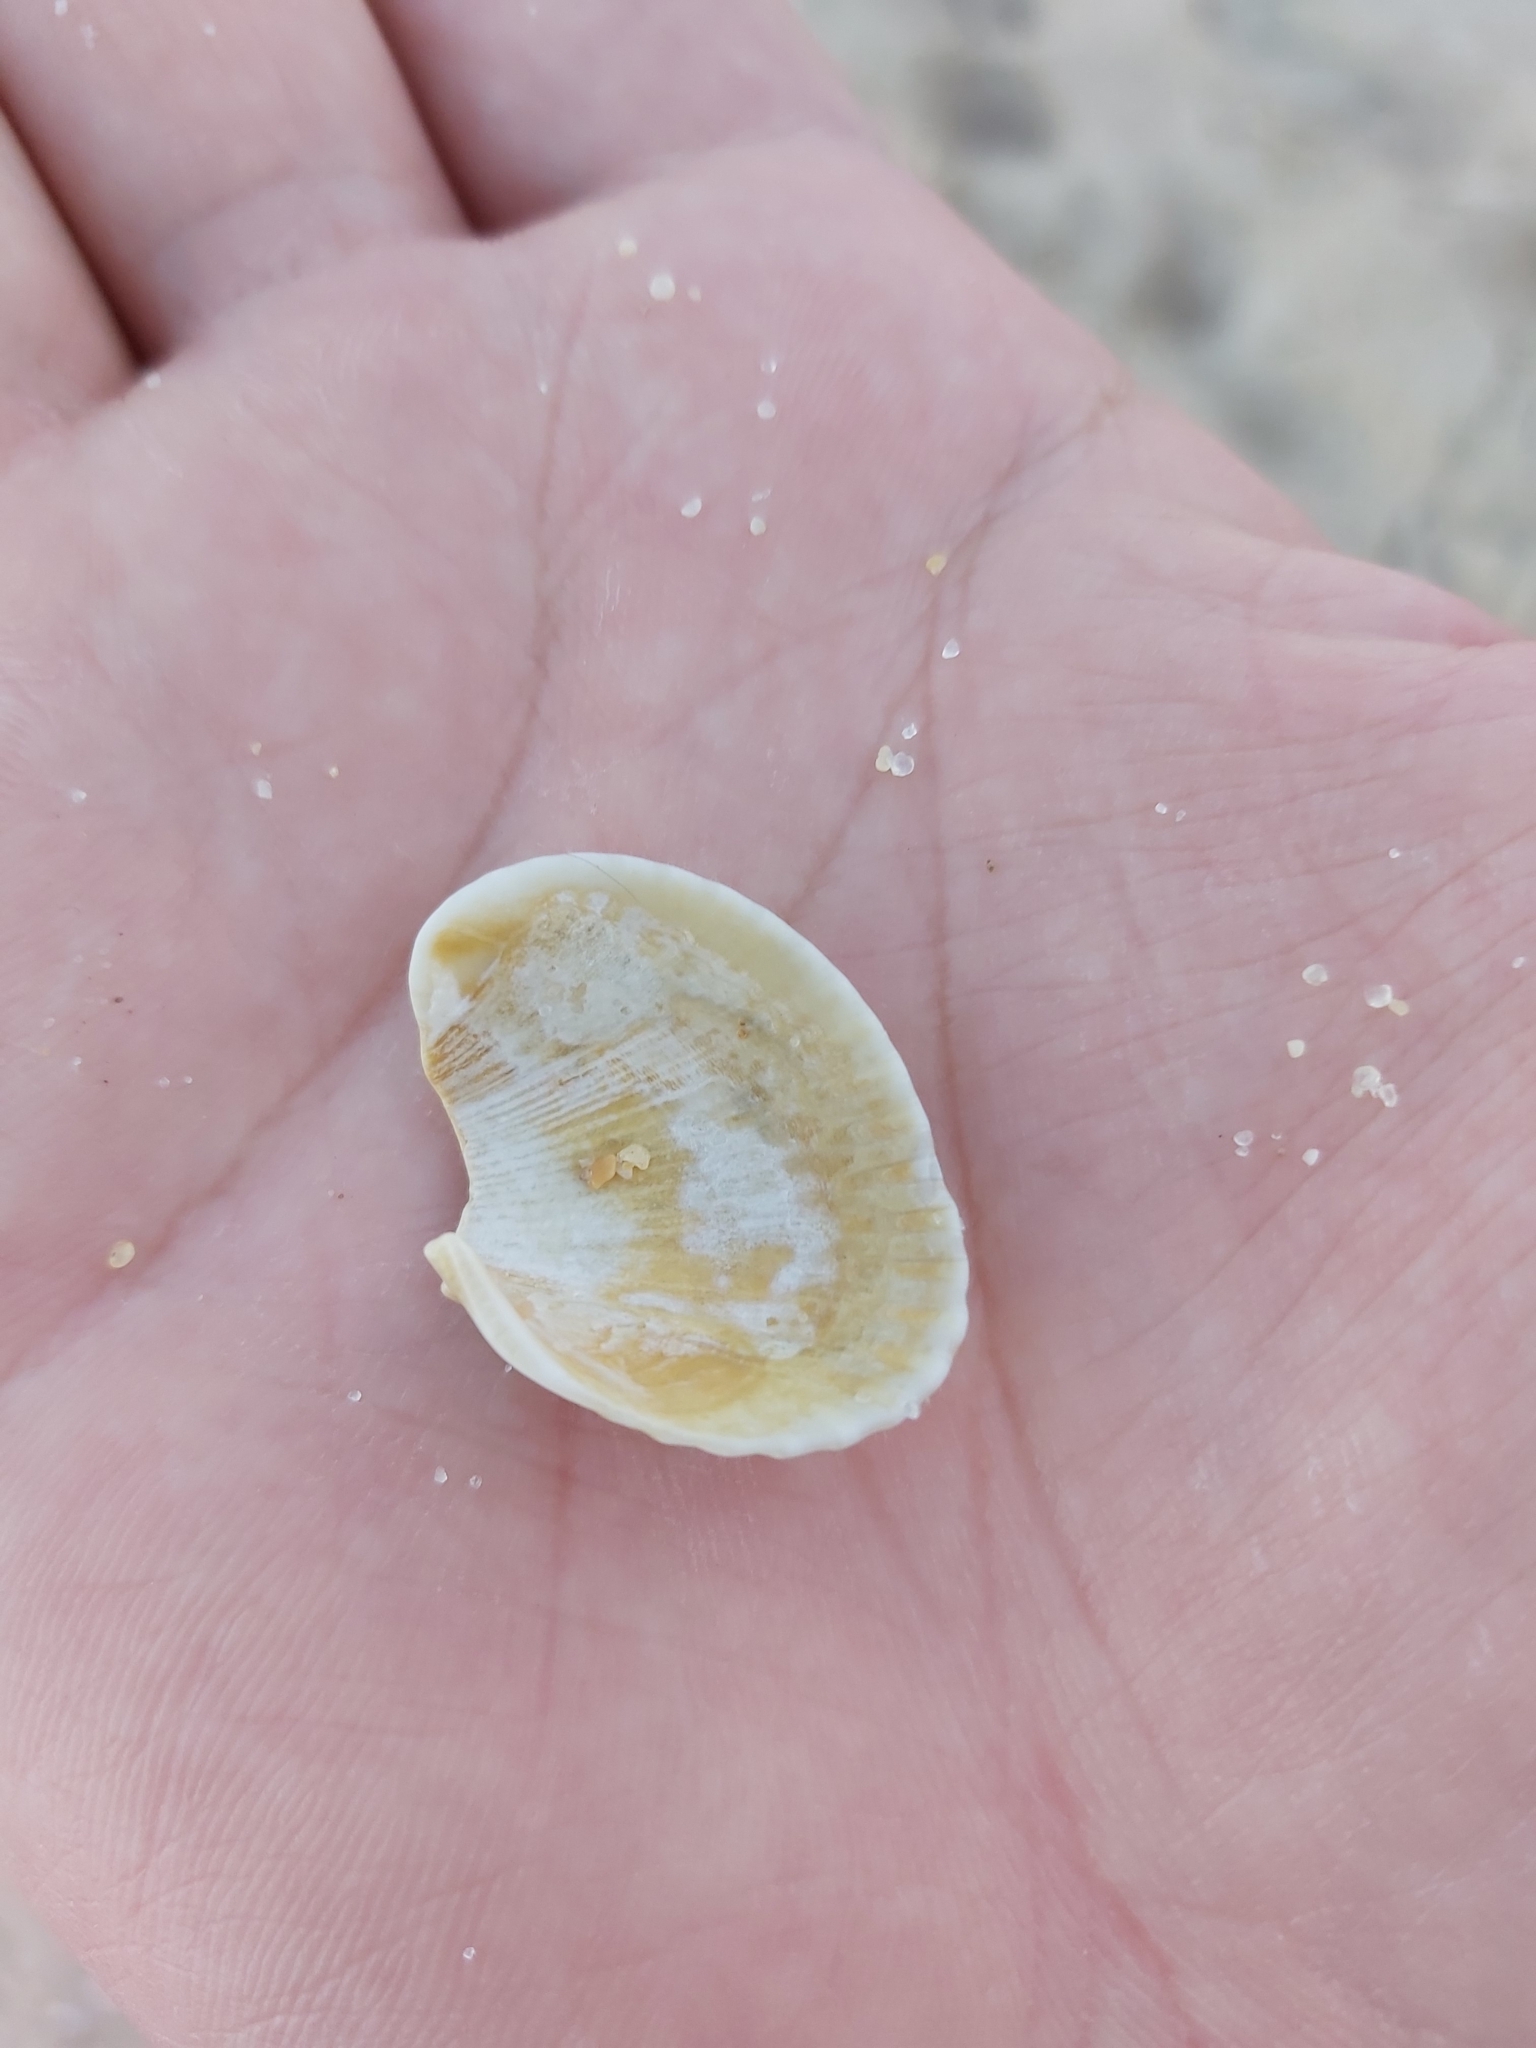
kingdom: Animalia
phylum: Mollusca
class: Bivalvia
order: Arcida
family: Arcidae
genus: Anadara
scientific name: Anadara trapezia
